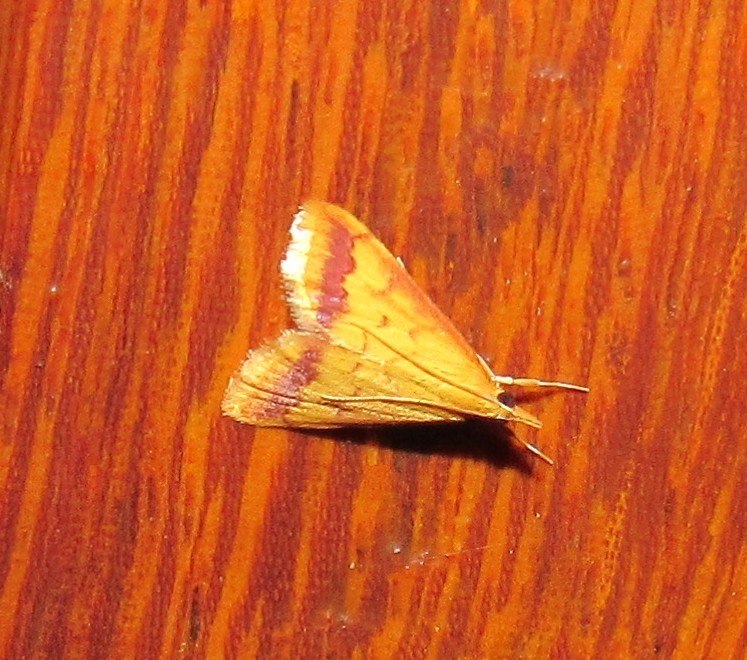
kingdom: Animalia
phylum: Arthropoda
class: Insecta
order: Lepidoptera
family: Crambidae
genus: Hyalorista
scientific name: Hyalorista taeniolalis
